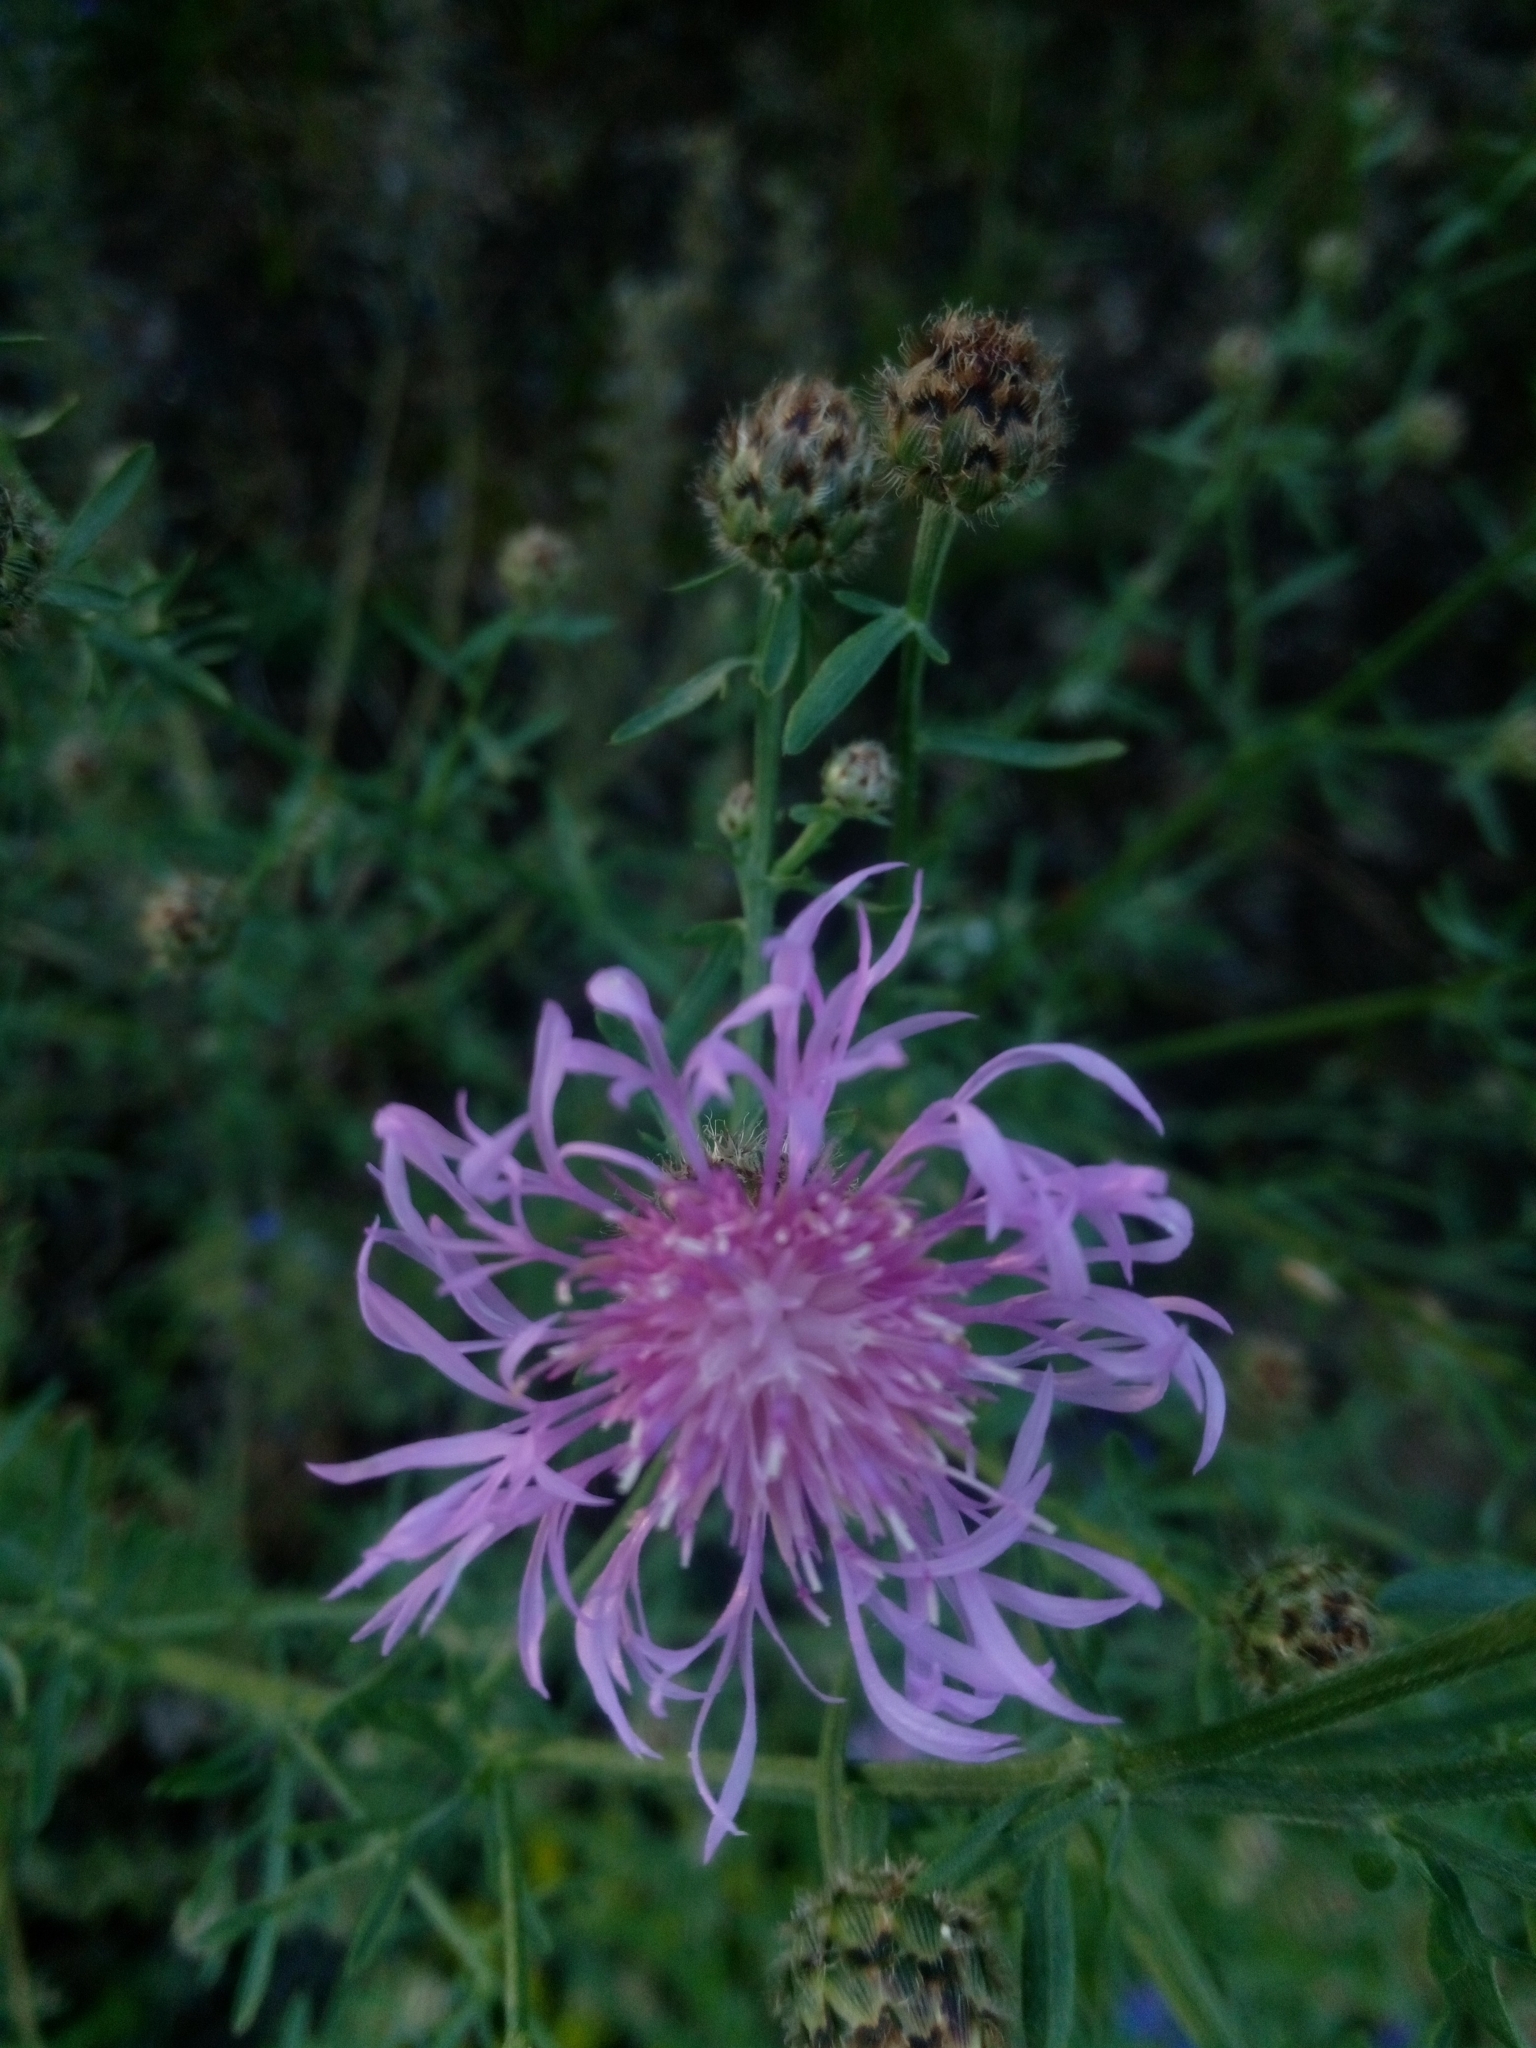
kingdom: Plantae
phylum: Tracheophyta
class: Magnoliopsida
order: Asterales
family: Asteraceae
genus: Centaurea
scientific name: Centaurea stoebe
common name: Spotted knapweed
